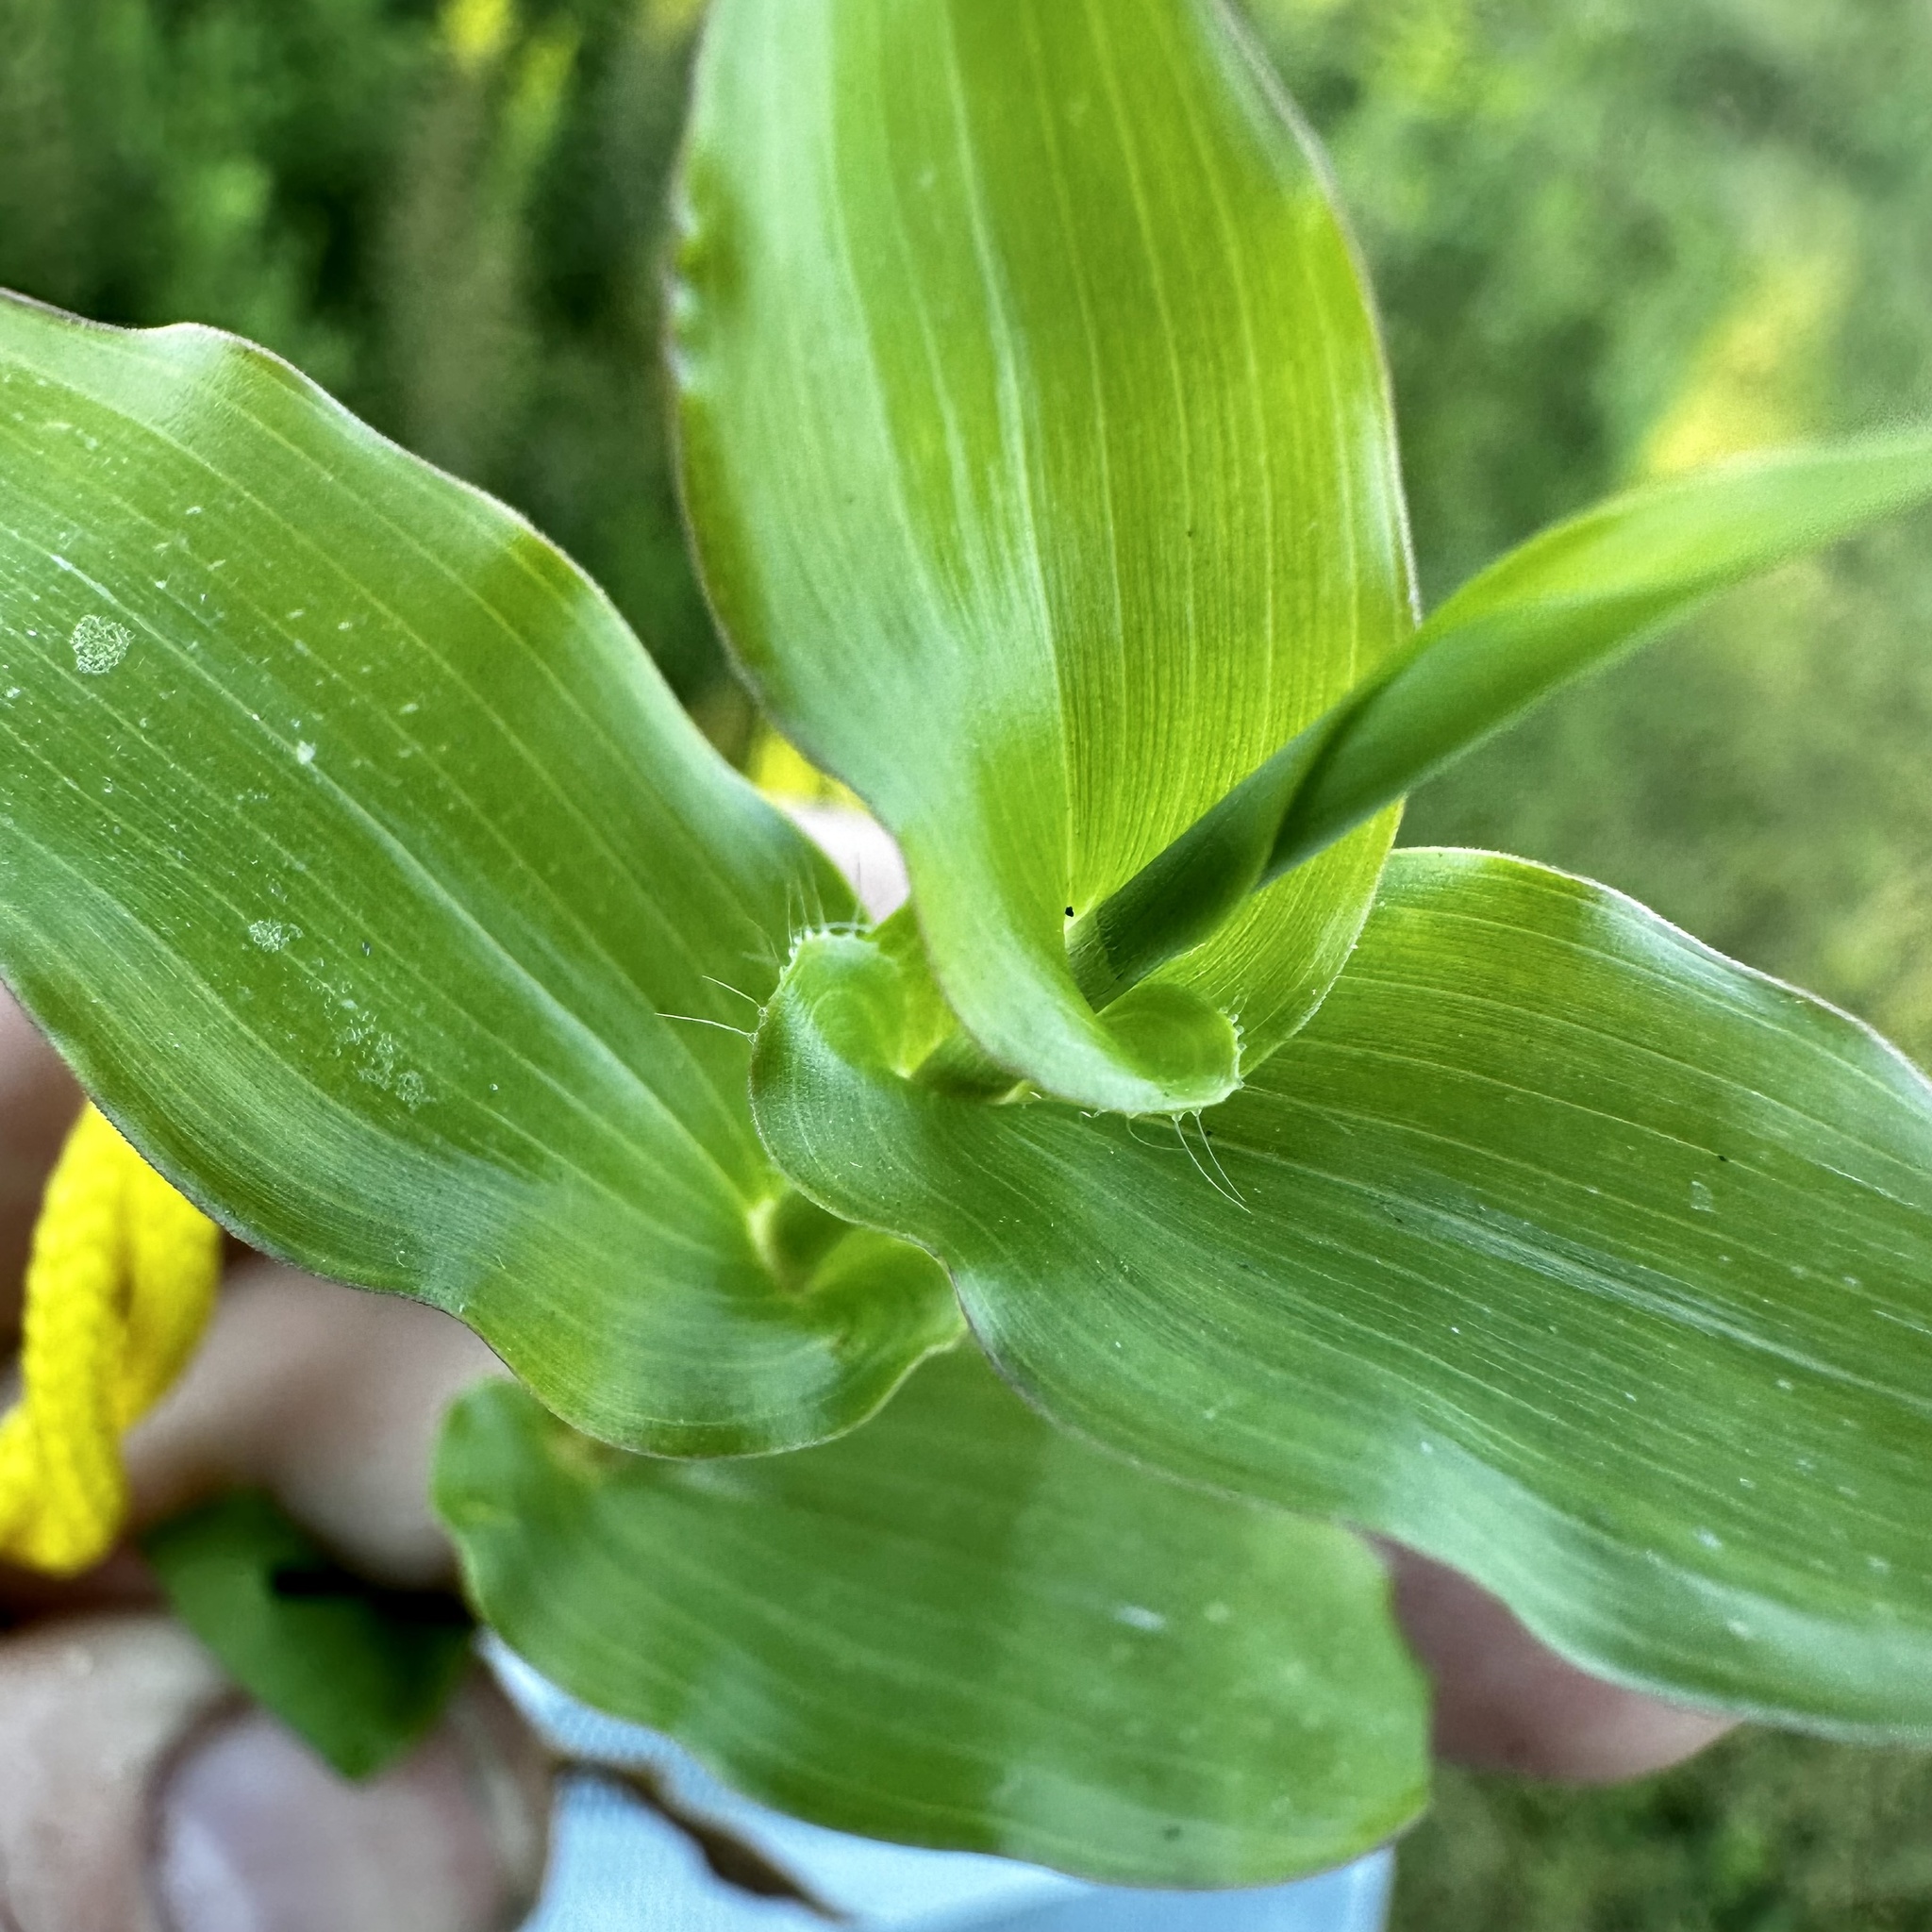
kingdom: Plantae
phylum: Tracheophyta
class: Liliopsida
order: Poales
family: Poaceae
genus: Arthraxon
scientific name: Arthraxon hispidus
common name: Small carpgrass
